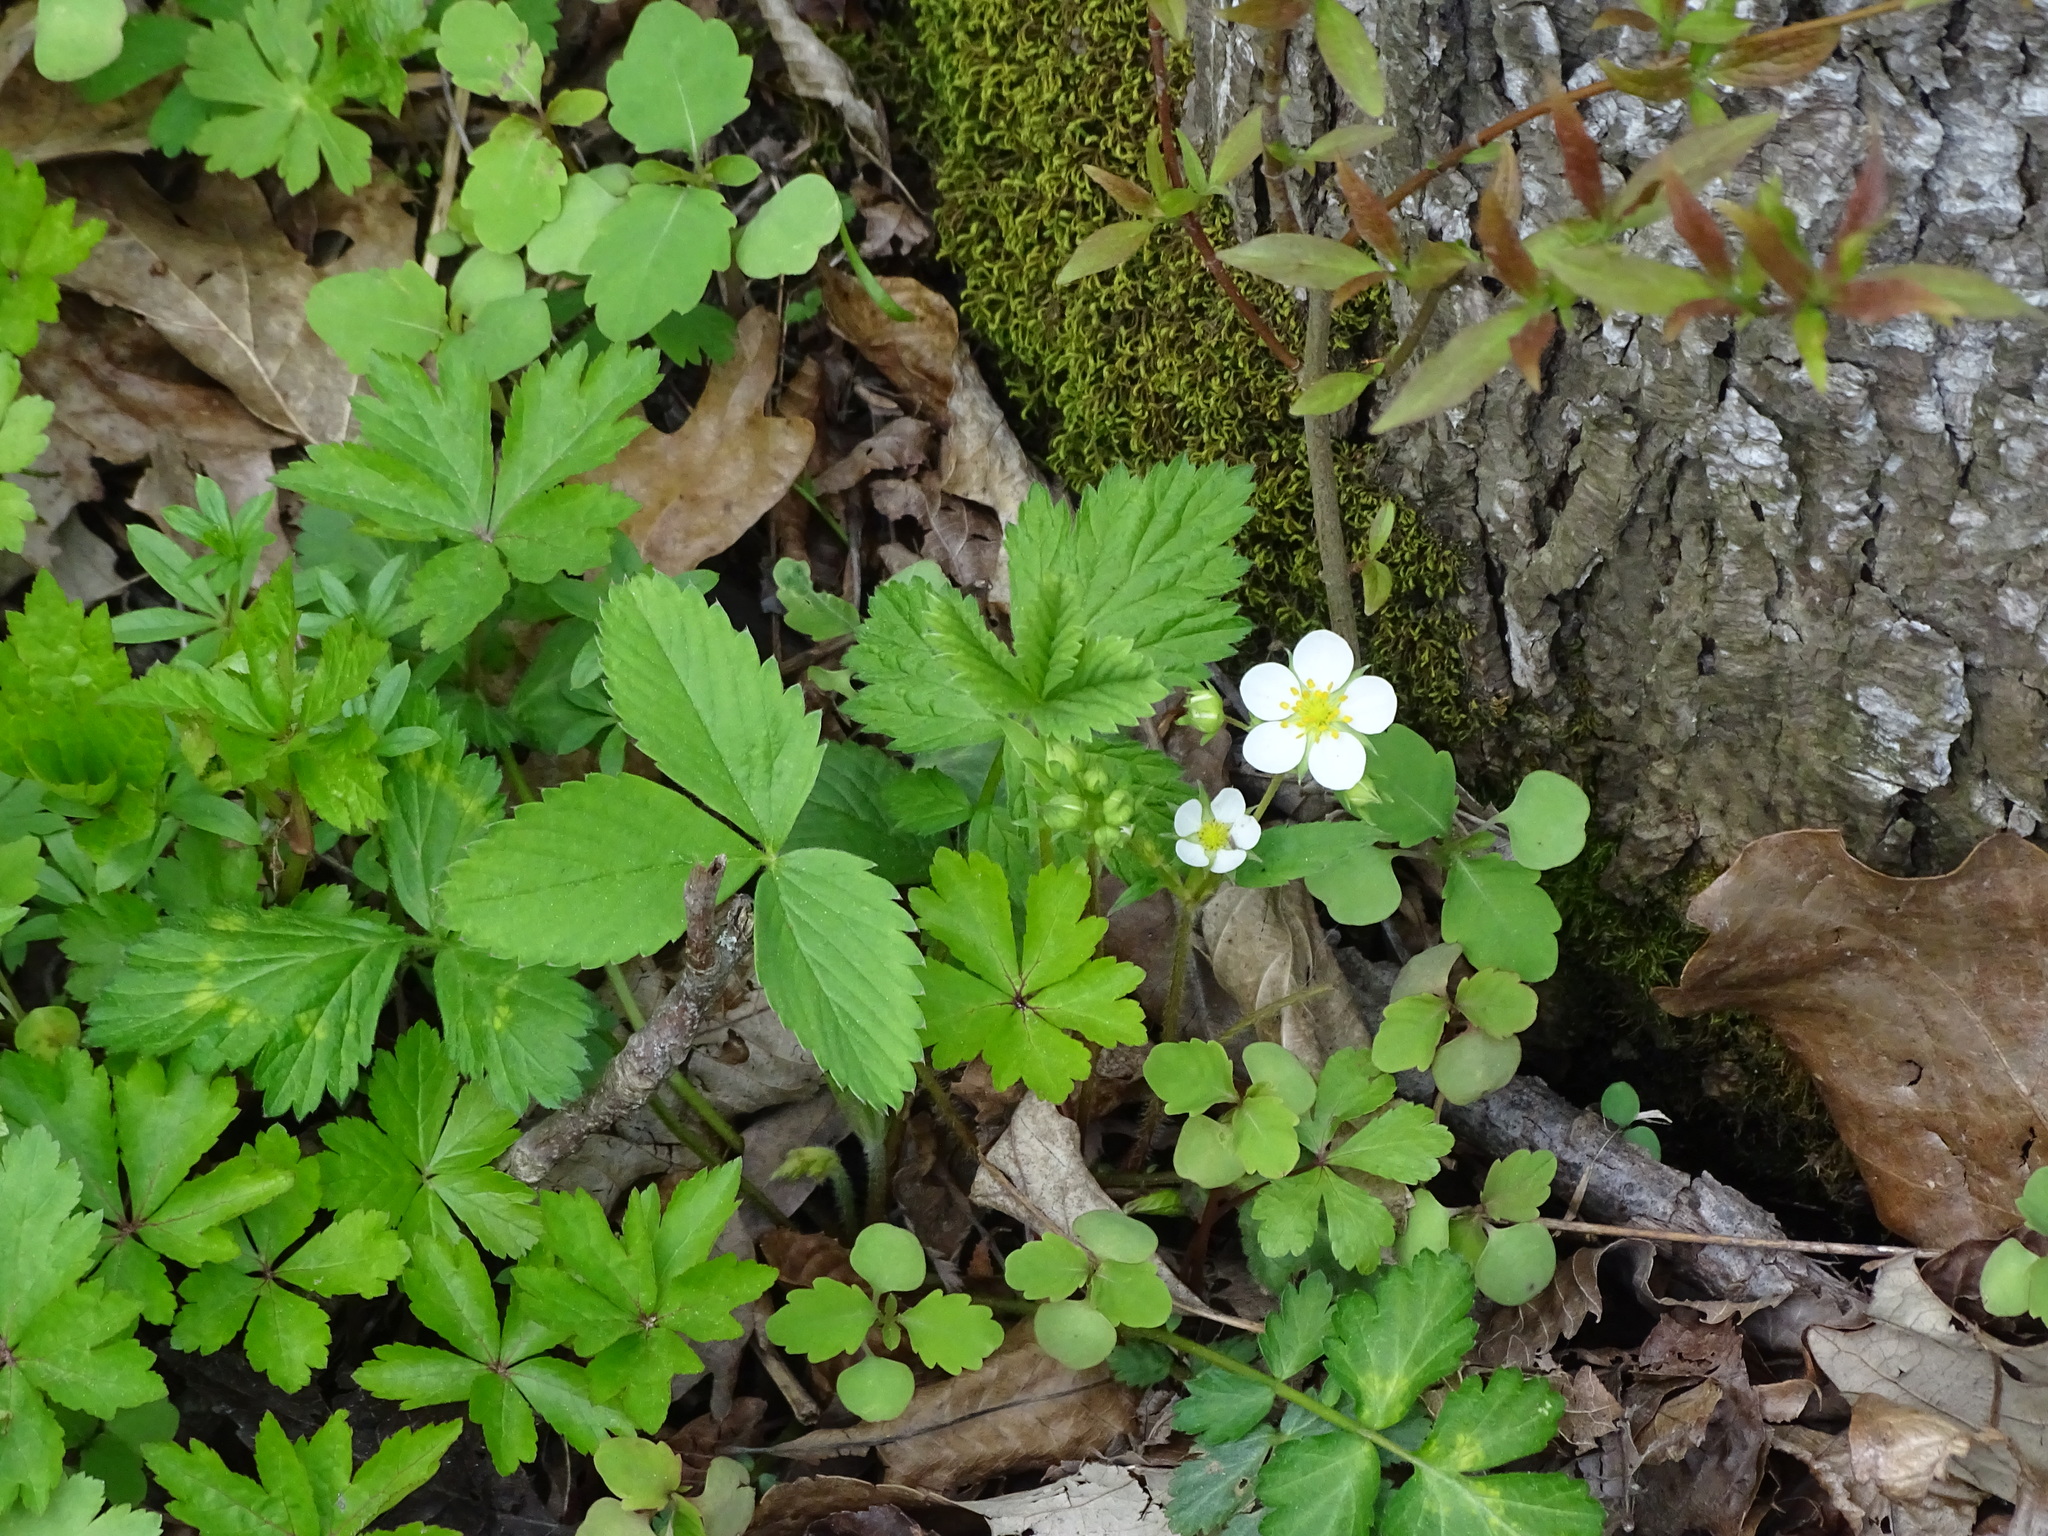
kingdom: Plantae
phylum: Tracheophyta
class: Magnoliopsida
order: Rosales
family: Rosaceae
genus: Fragaria
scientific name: Fragaria virginiana
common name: Thickleaved wild strawberry
